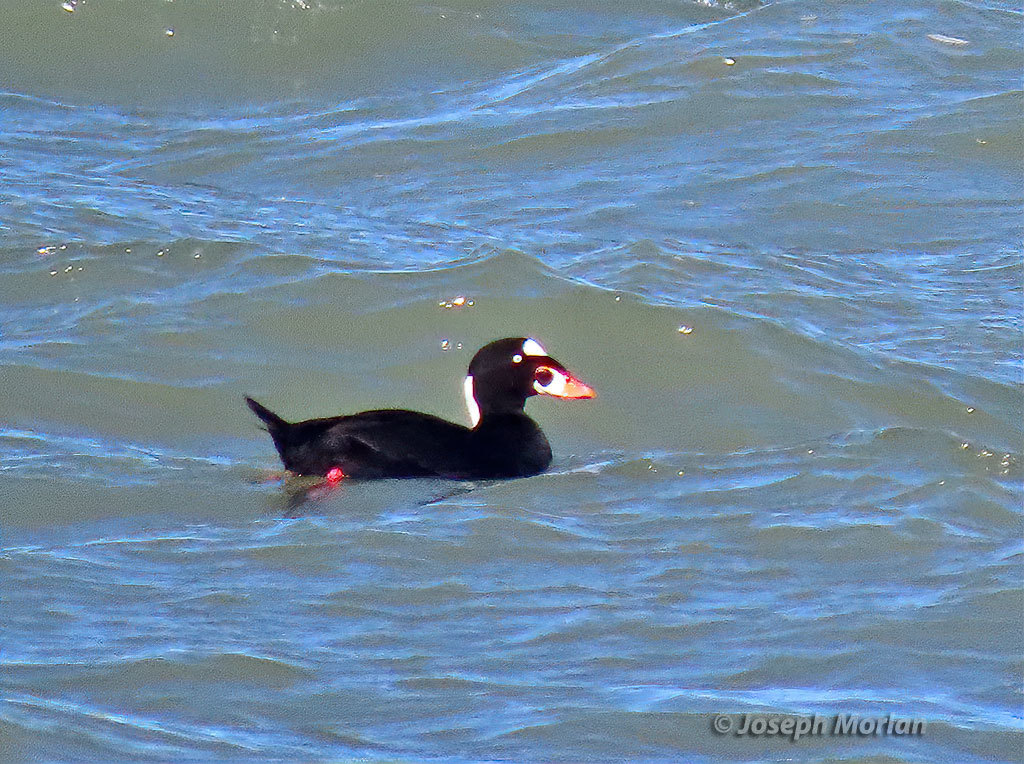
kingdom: Animalia
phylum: Chordata
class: Aves
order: Anseriformes
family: Anatidae
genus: Melanitta
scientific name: Melanitta perspicillata
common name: Surf scoter
